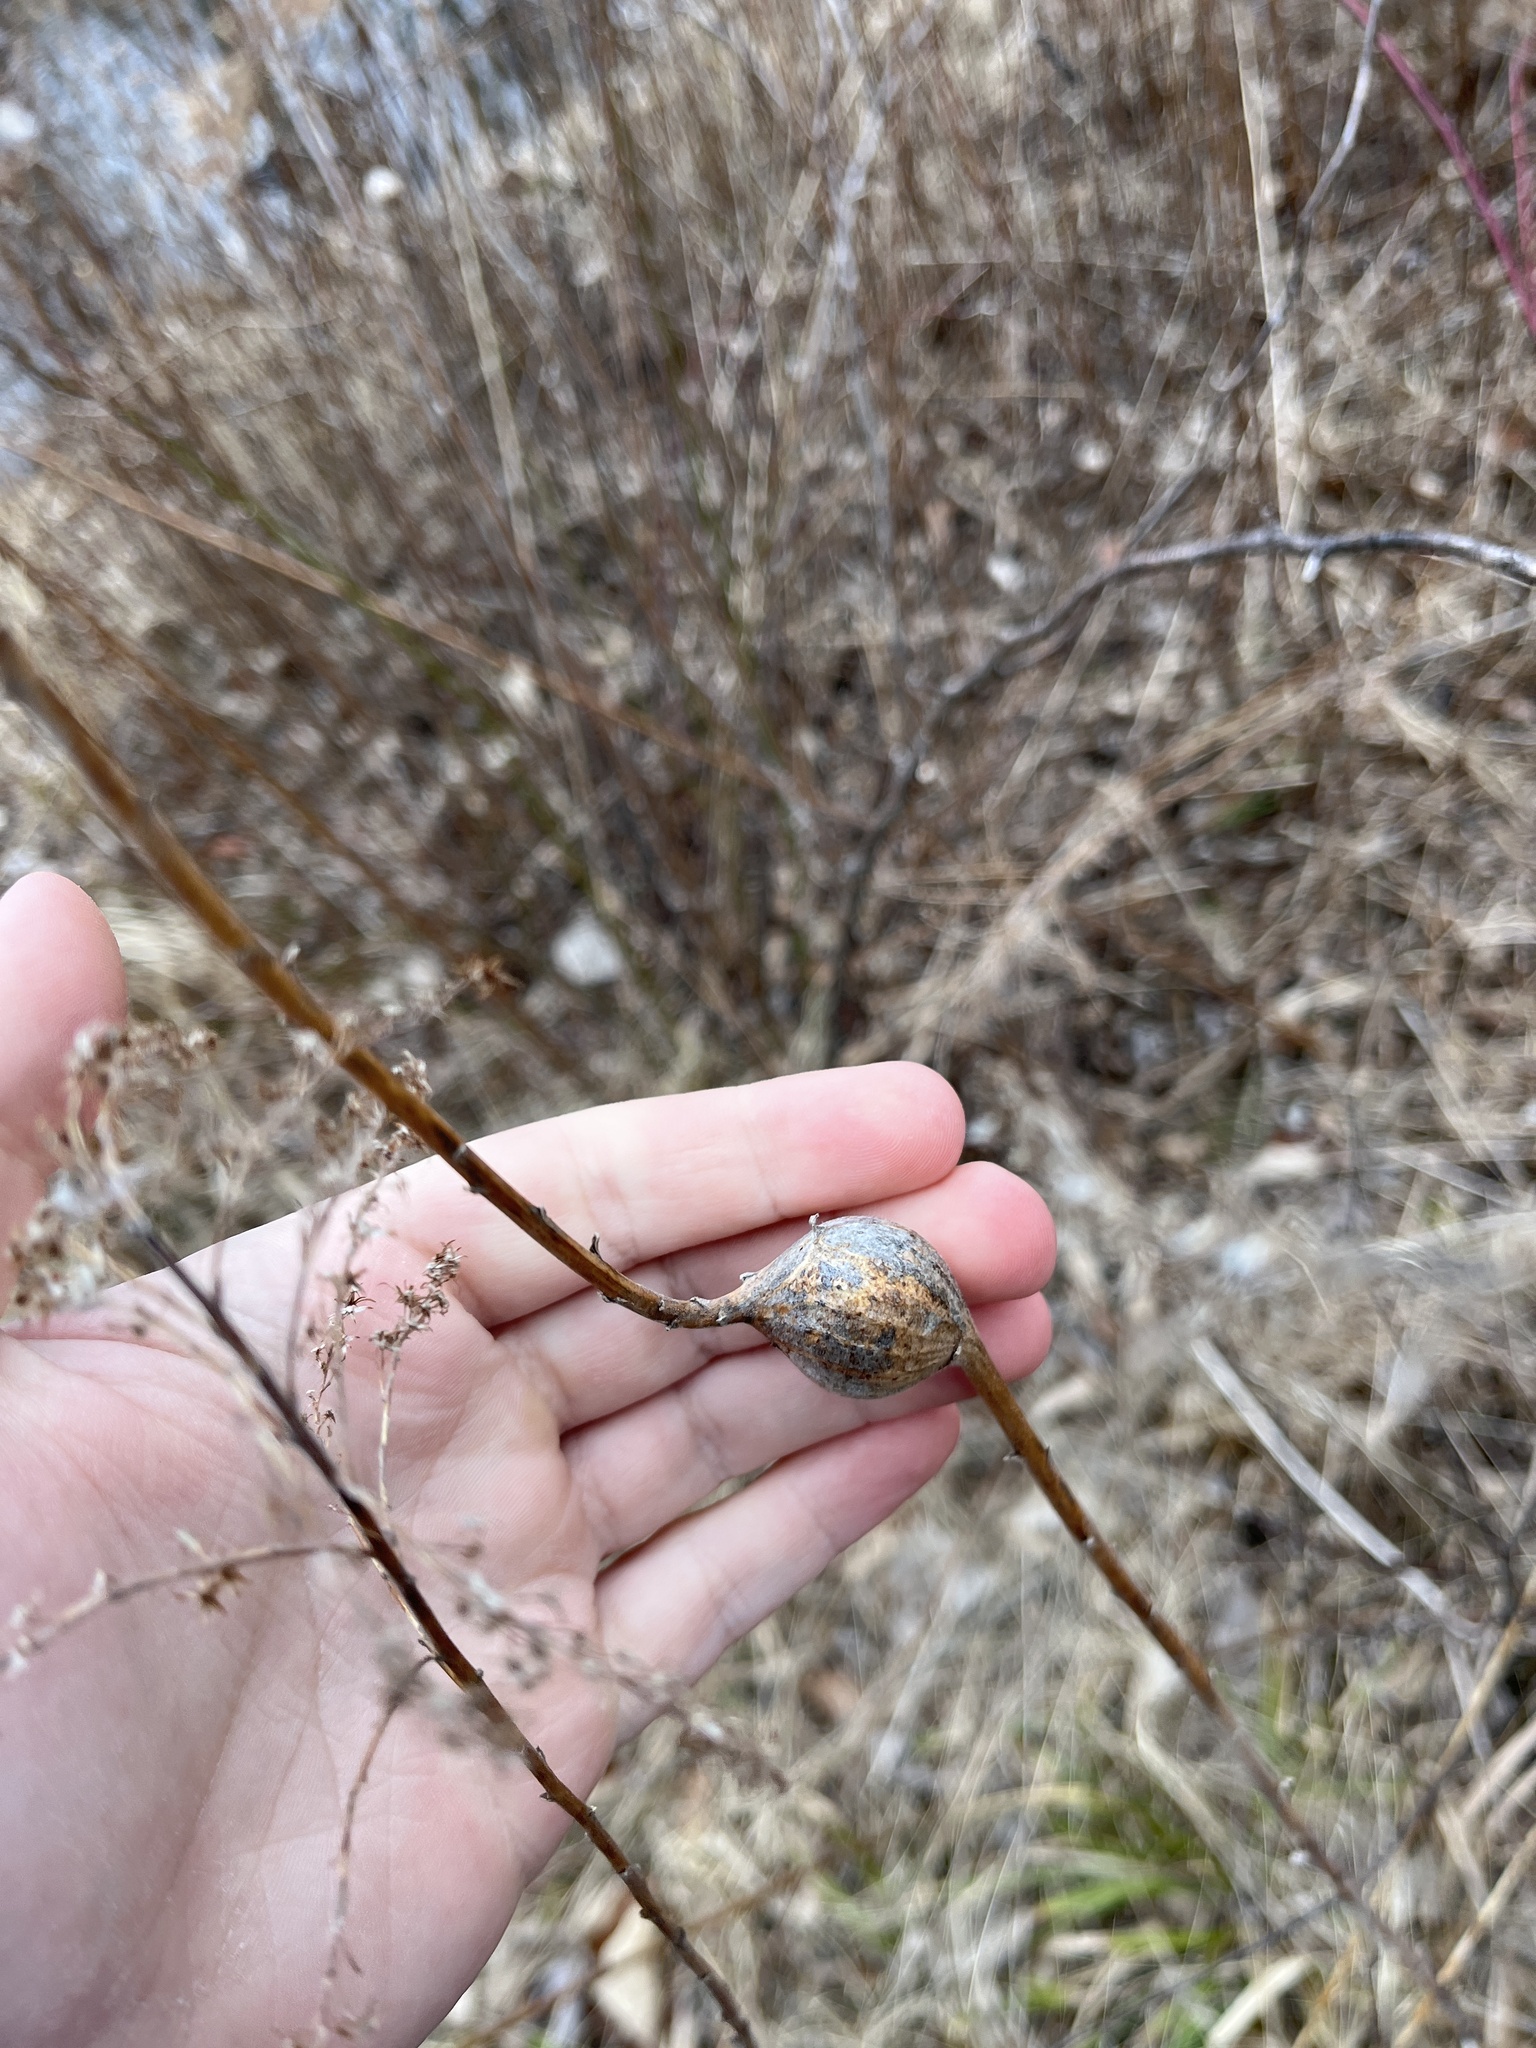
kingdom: Animalia
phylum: Arthropoda
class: Insecta
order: Diptera
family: Tephritidae
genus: Eurosta
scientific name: Eurosta solidaginis
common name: Goldenrod gall fly
